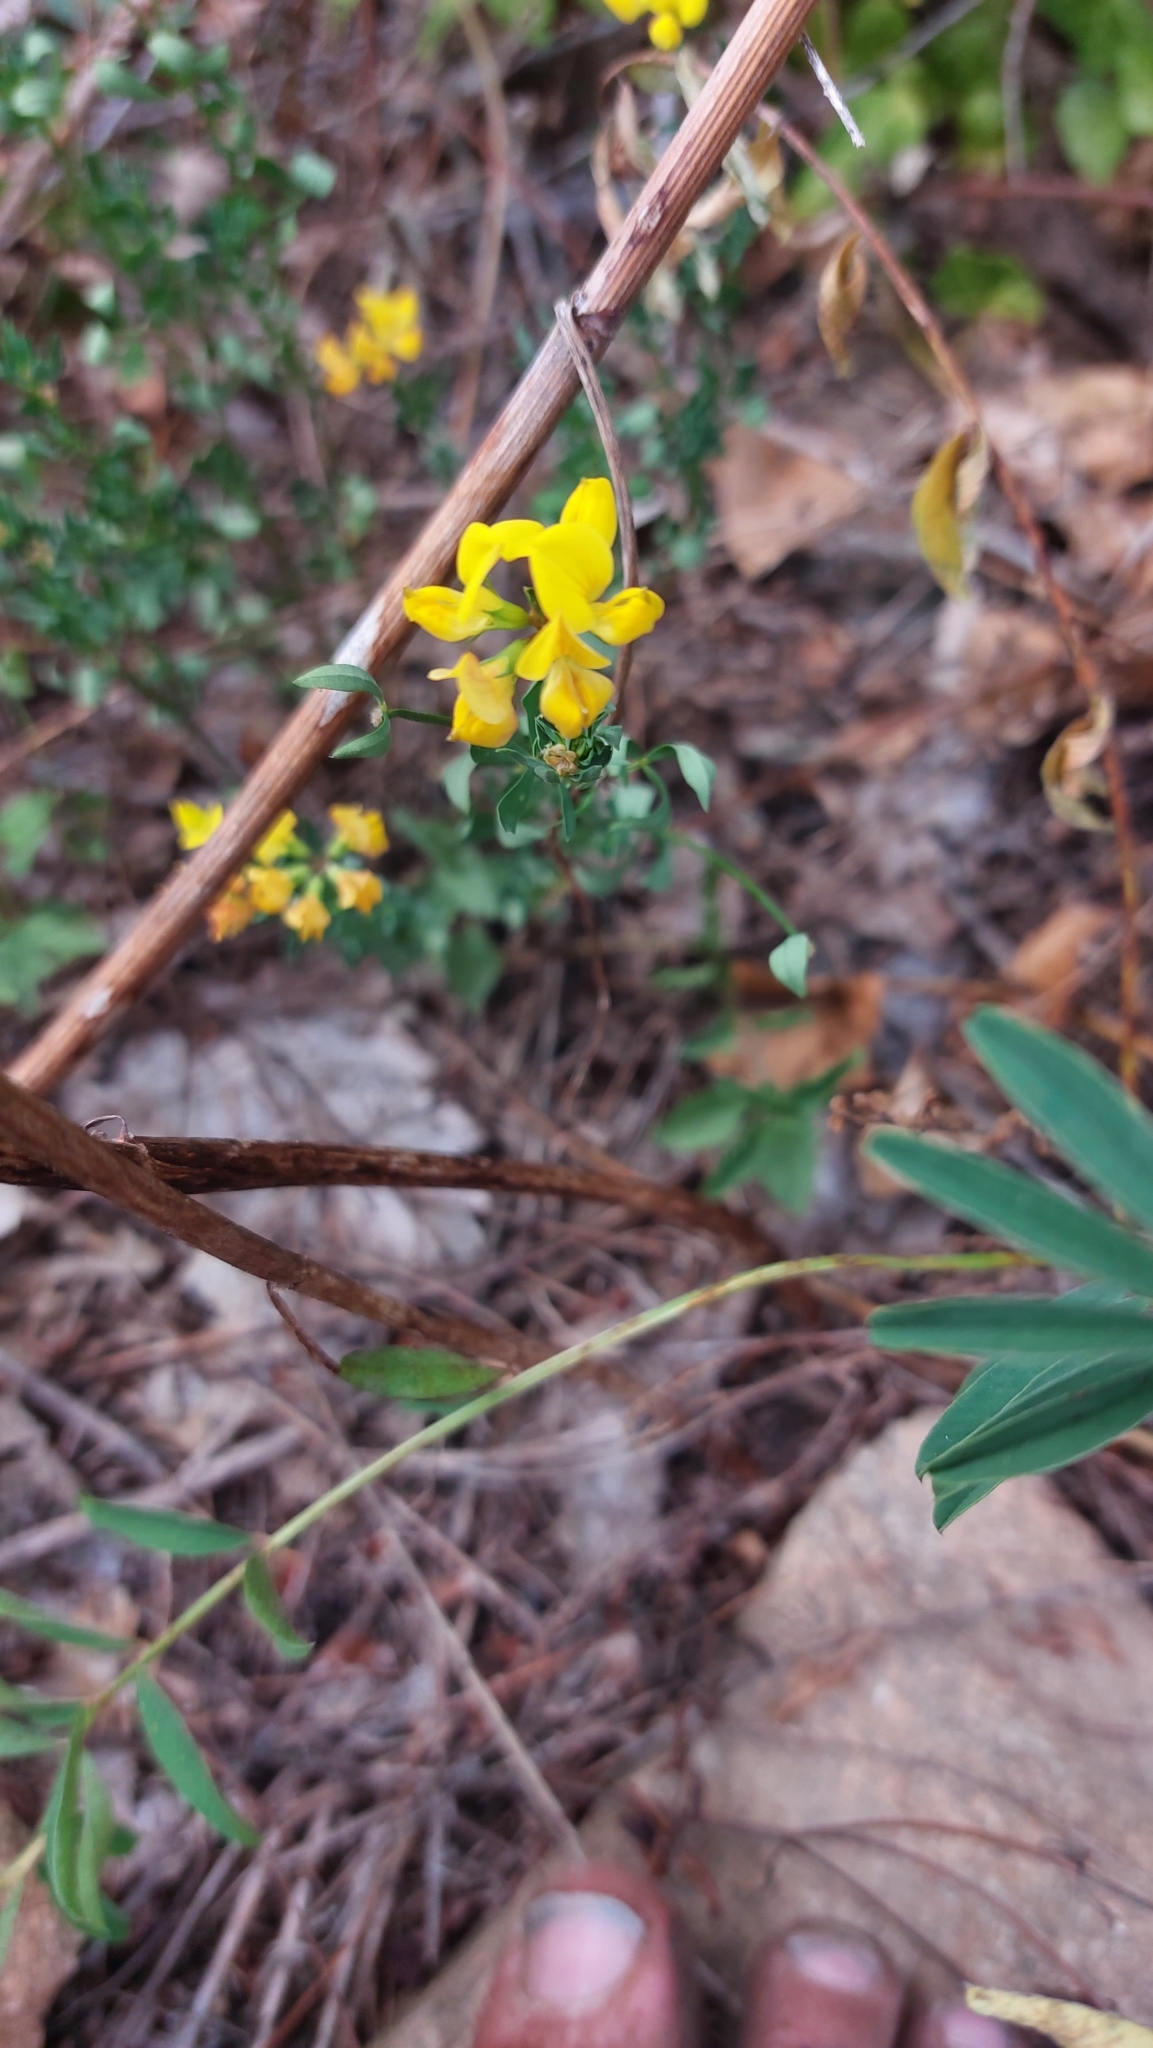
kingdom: Plantae
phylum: Tracheophyta
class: Magnoliopsida
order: Fabales
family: Fabaceae
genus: Lotus
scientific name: Lotus corniculatus
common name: Common bird's-foot-trefoil
